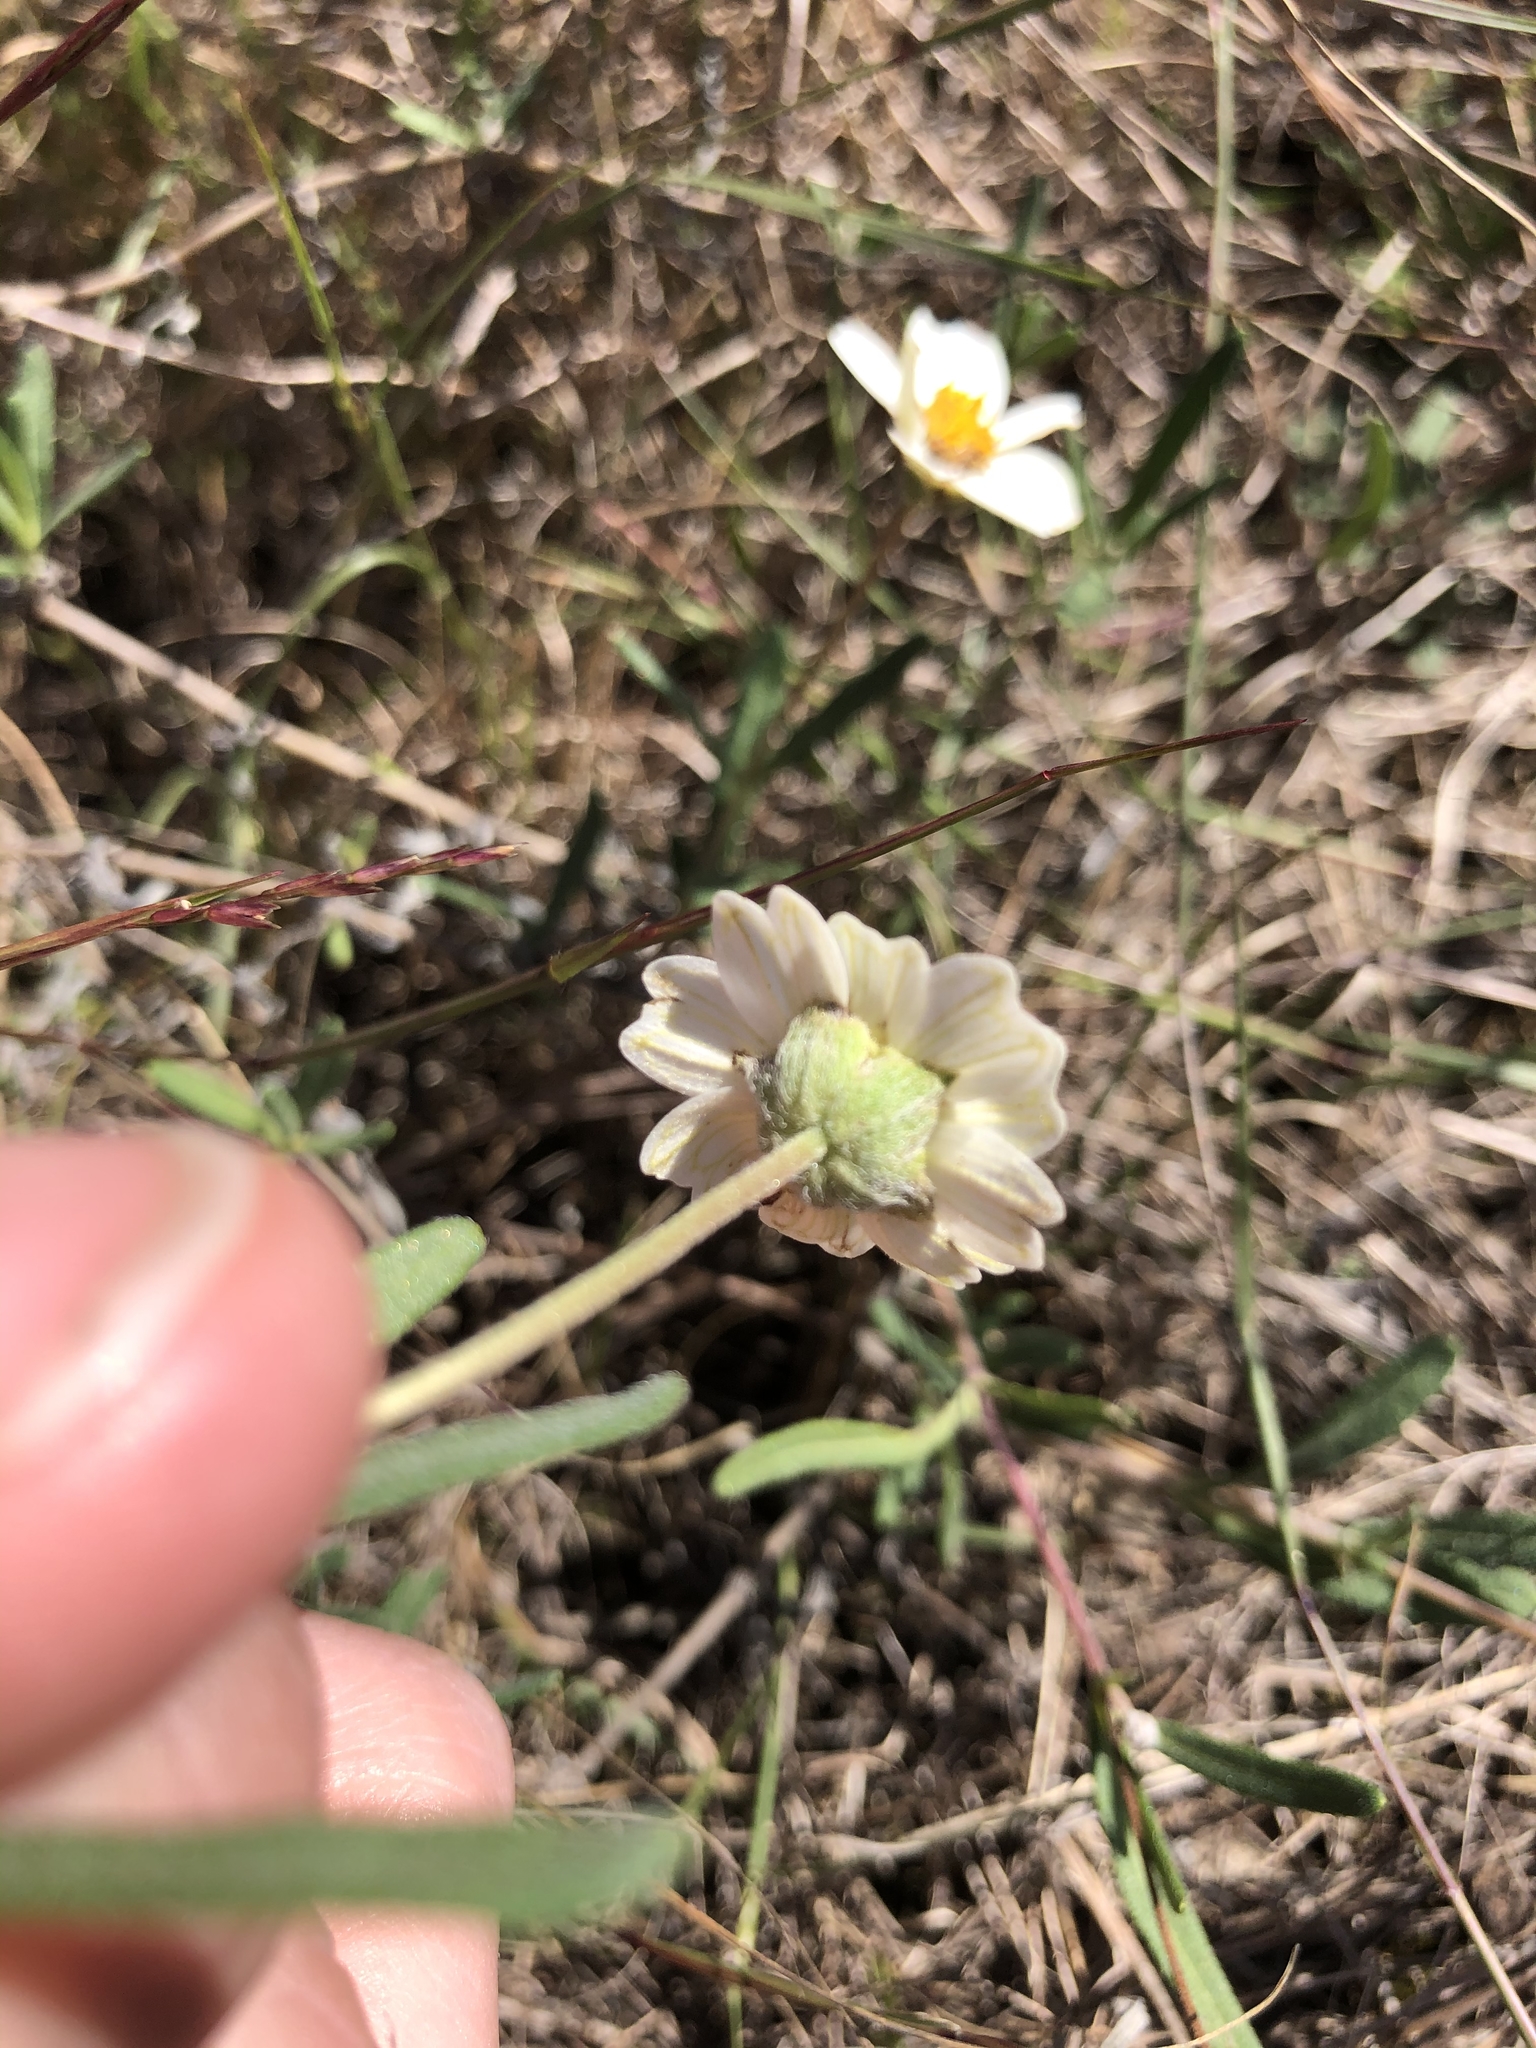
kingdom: Plantae
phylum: Tracheophyta
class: Magnoliopsida
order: Asterales
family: Asteraceae
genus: Melampodium
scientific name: Melampodium leucanthum
